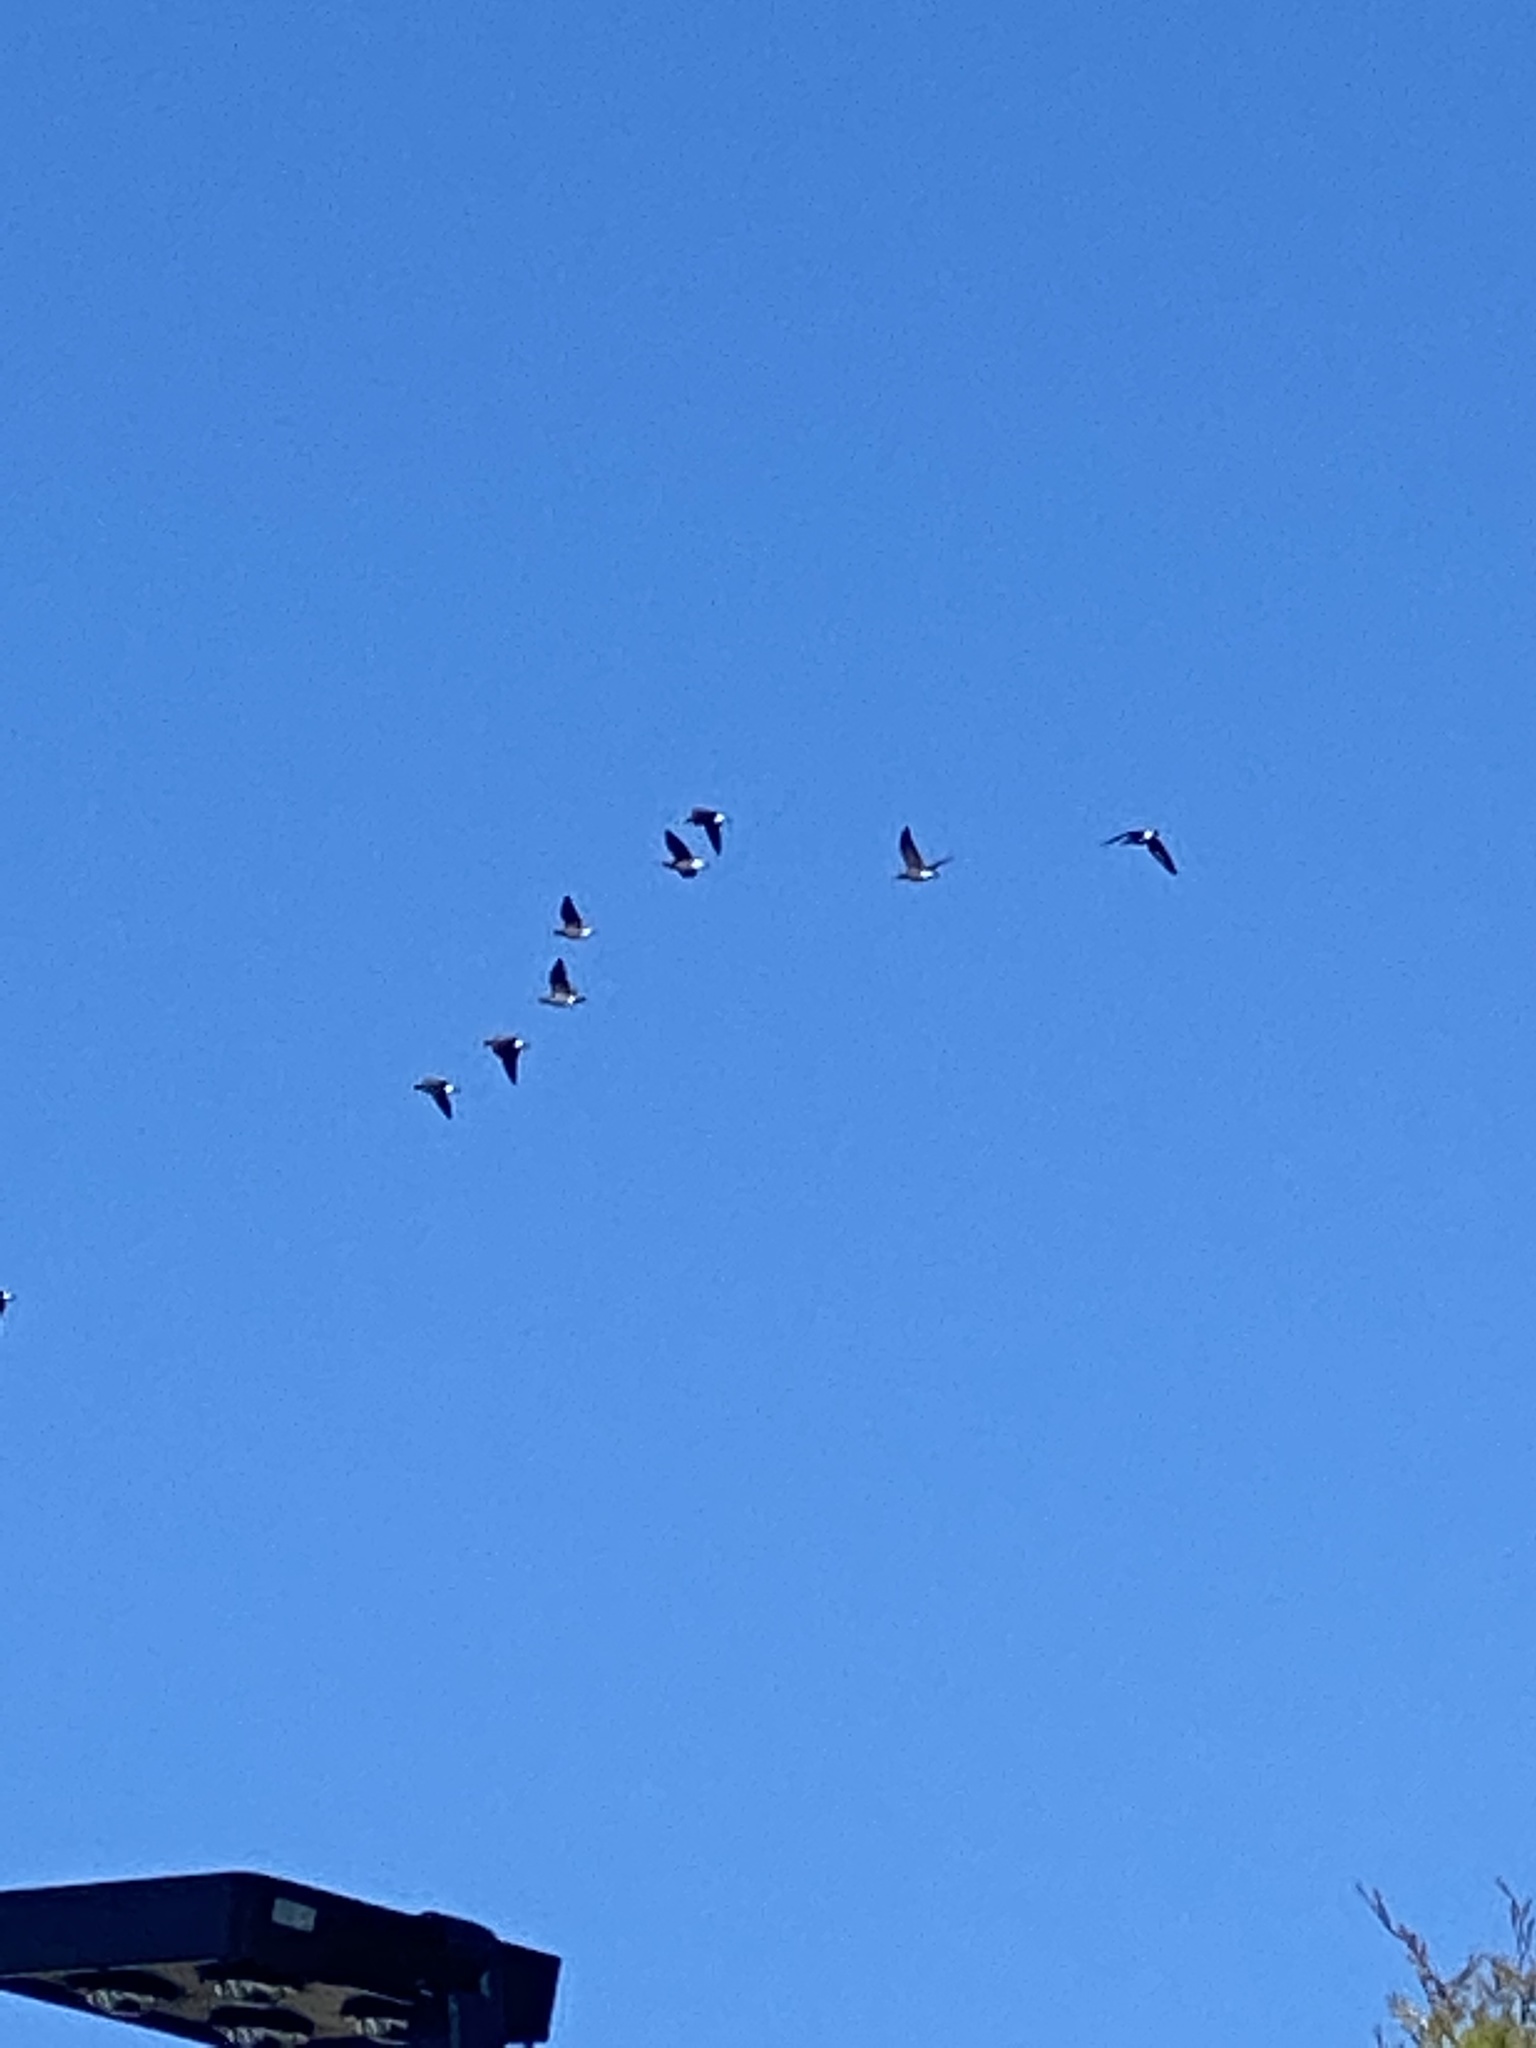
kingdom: Animalia
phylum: Chordata
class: Aves
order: Anseriformes
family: Anatidae
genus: Branta
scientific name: Branta canadensis
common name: Canada goose
